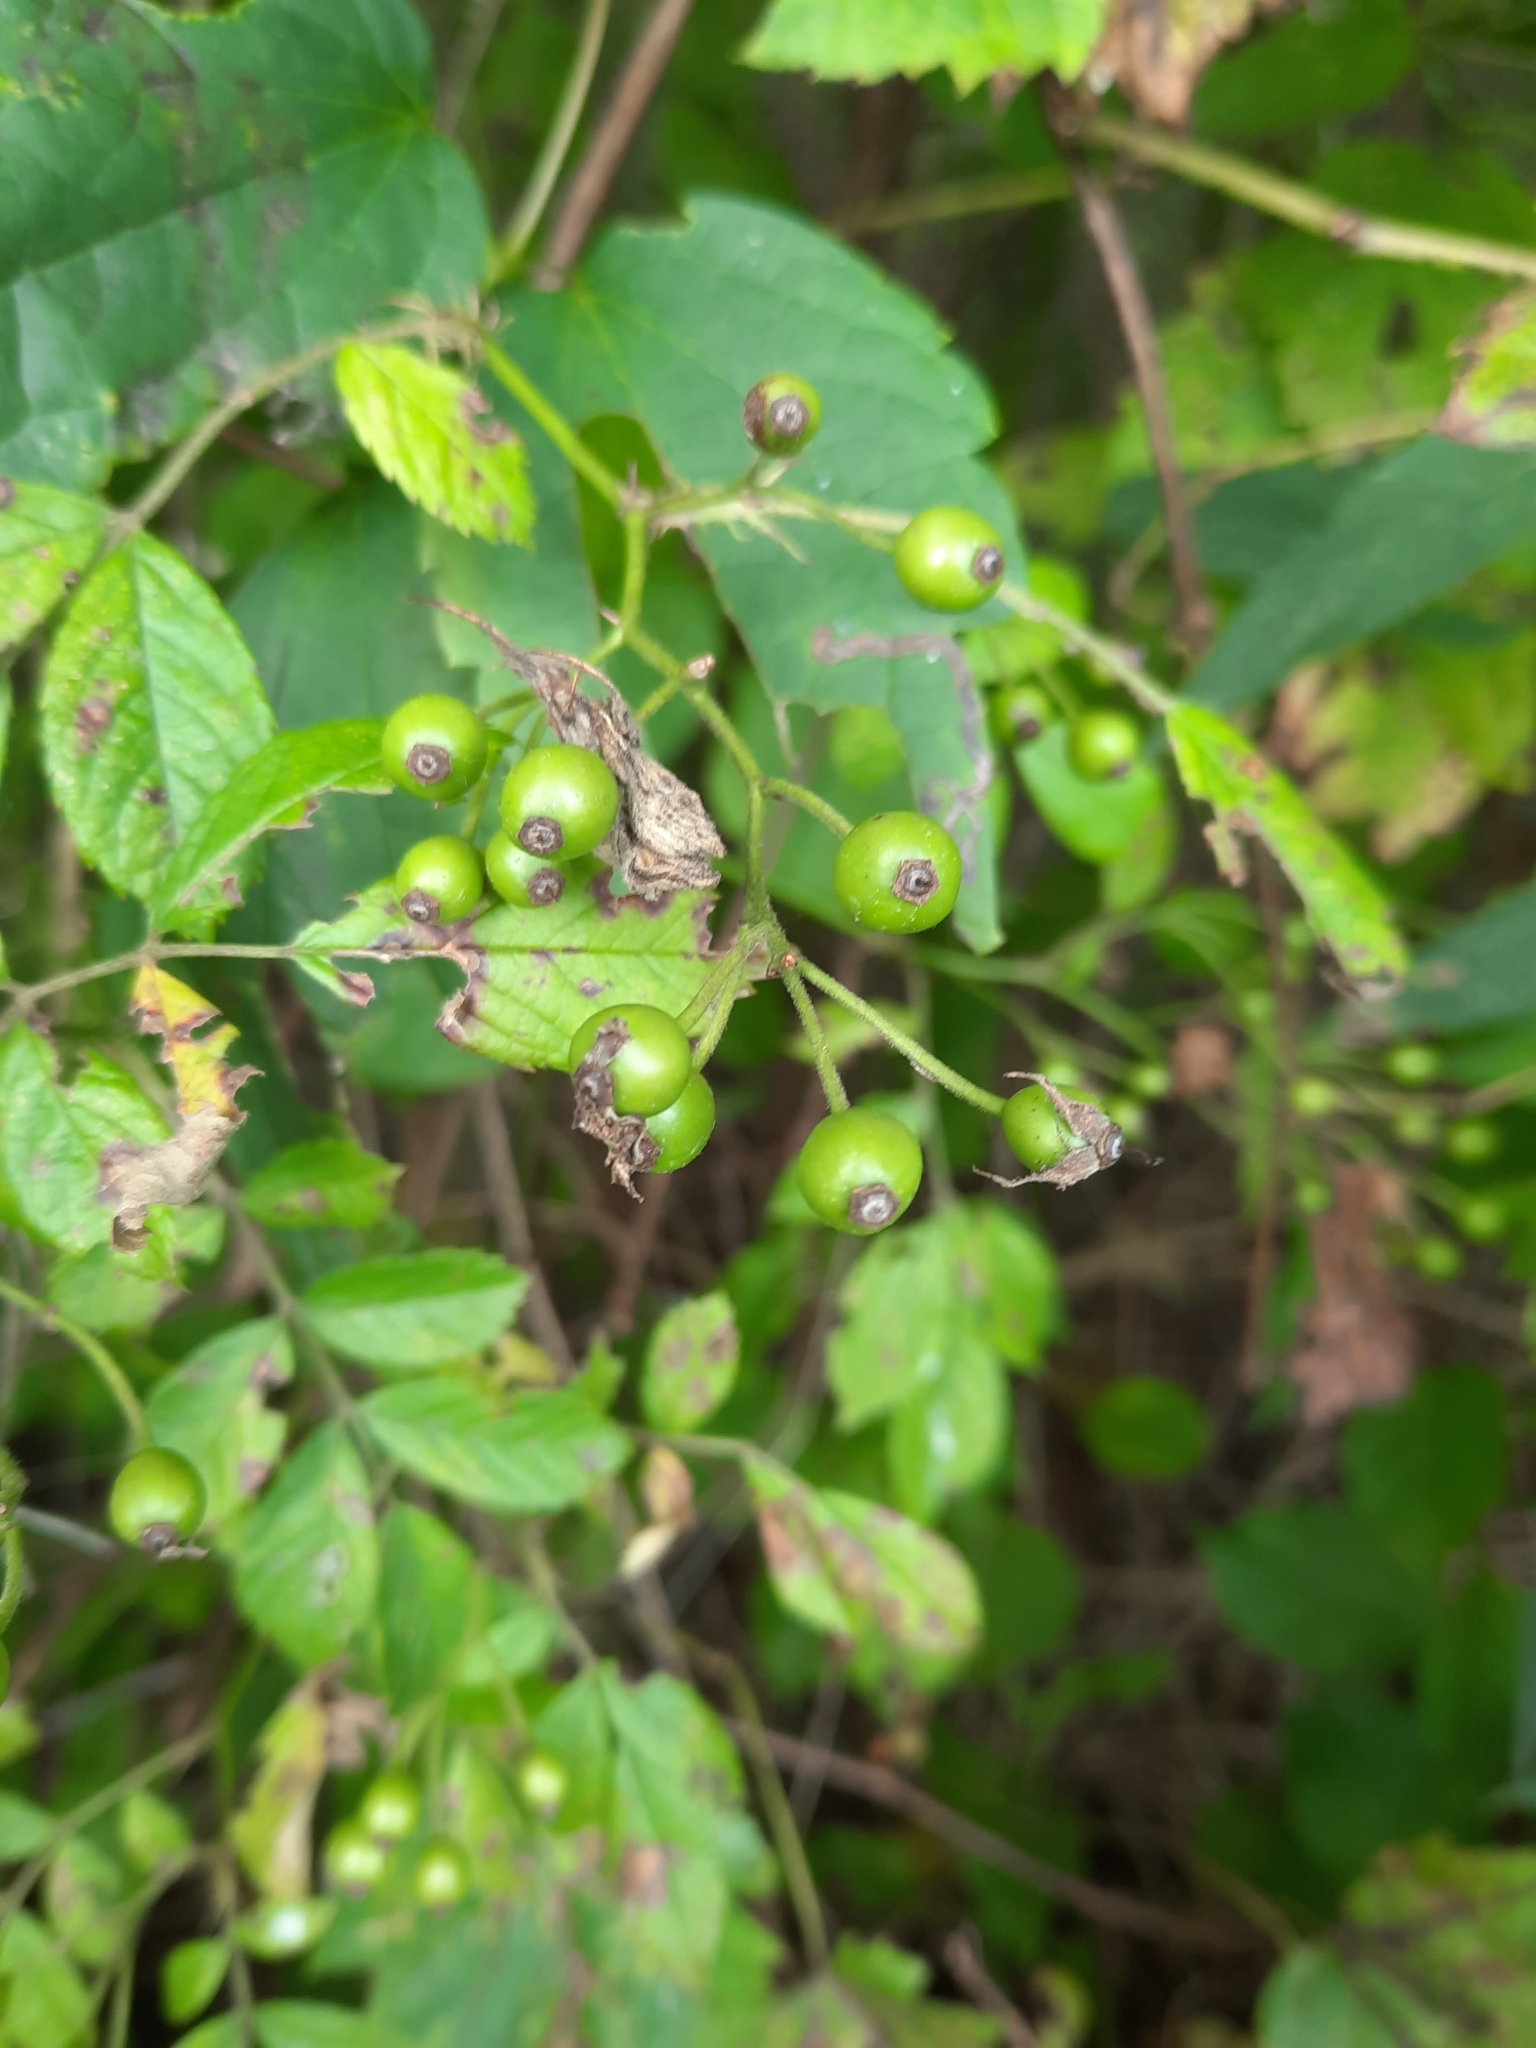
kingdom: Plantae
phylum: Tracheophyta
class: Magnoliopsida
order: Rosales
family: Rosaceae
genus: Rosa
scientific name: Rosa multiflora
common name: Multiflora rose
